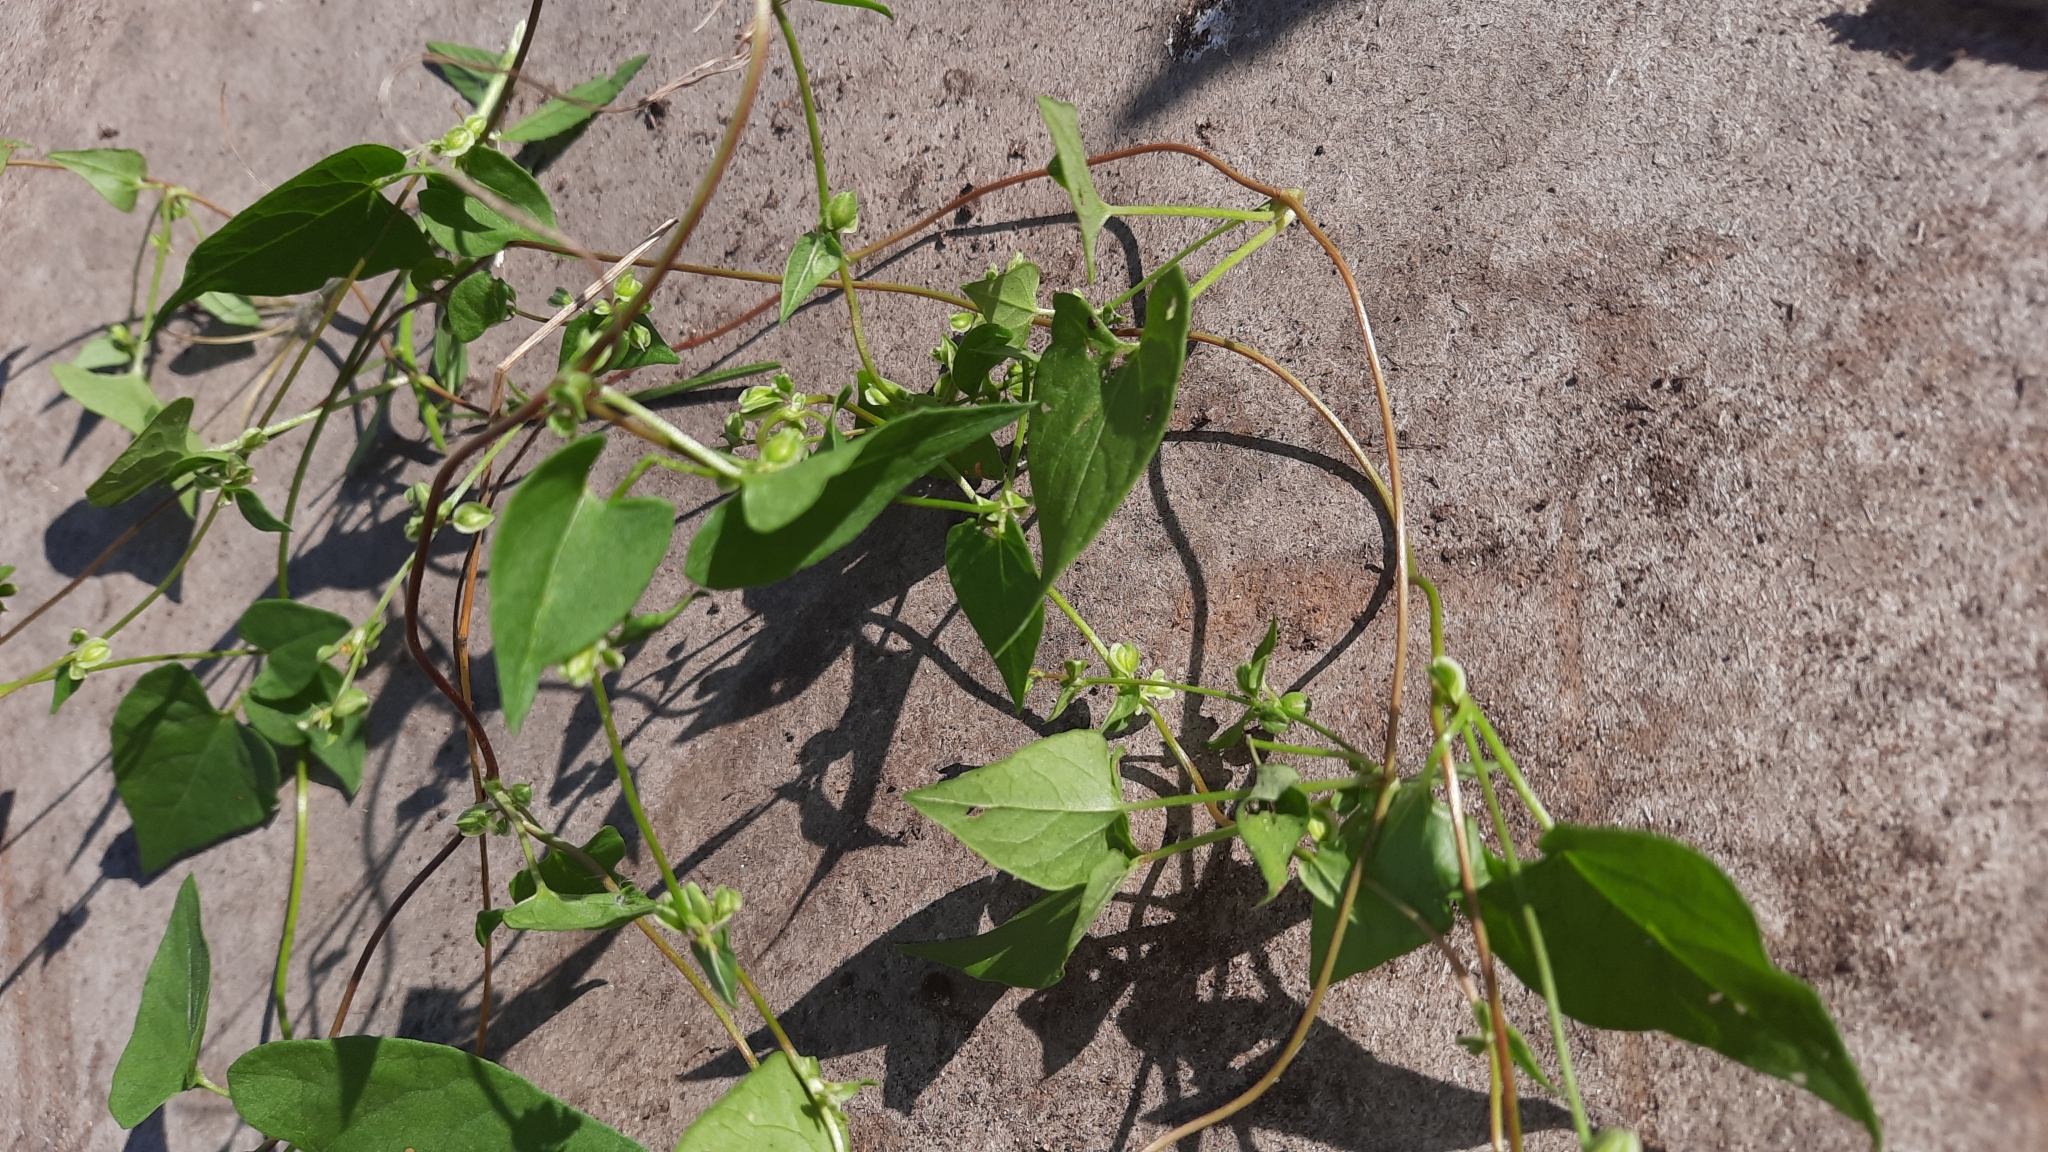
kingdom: Plantae
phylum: Tracheophyta
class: Magnoliopsida
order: Caryophyllales
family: Polygonaceae
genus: Fallopia
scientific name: Fallopia dumetorum
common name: Copse-bindweed
